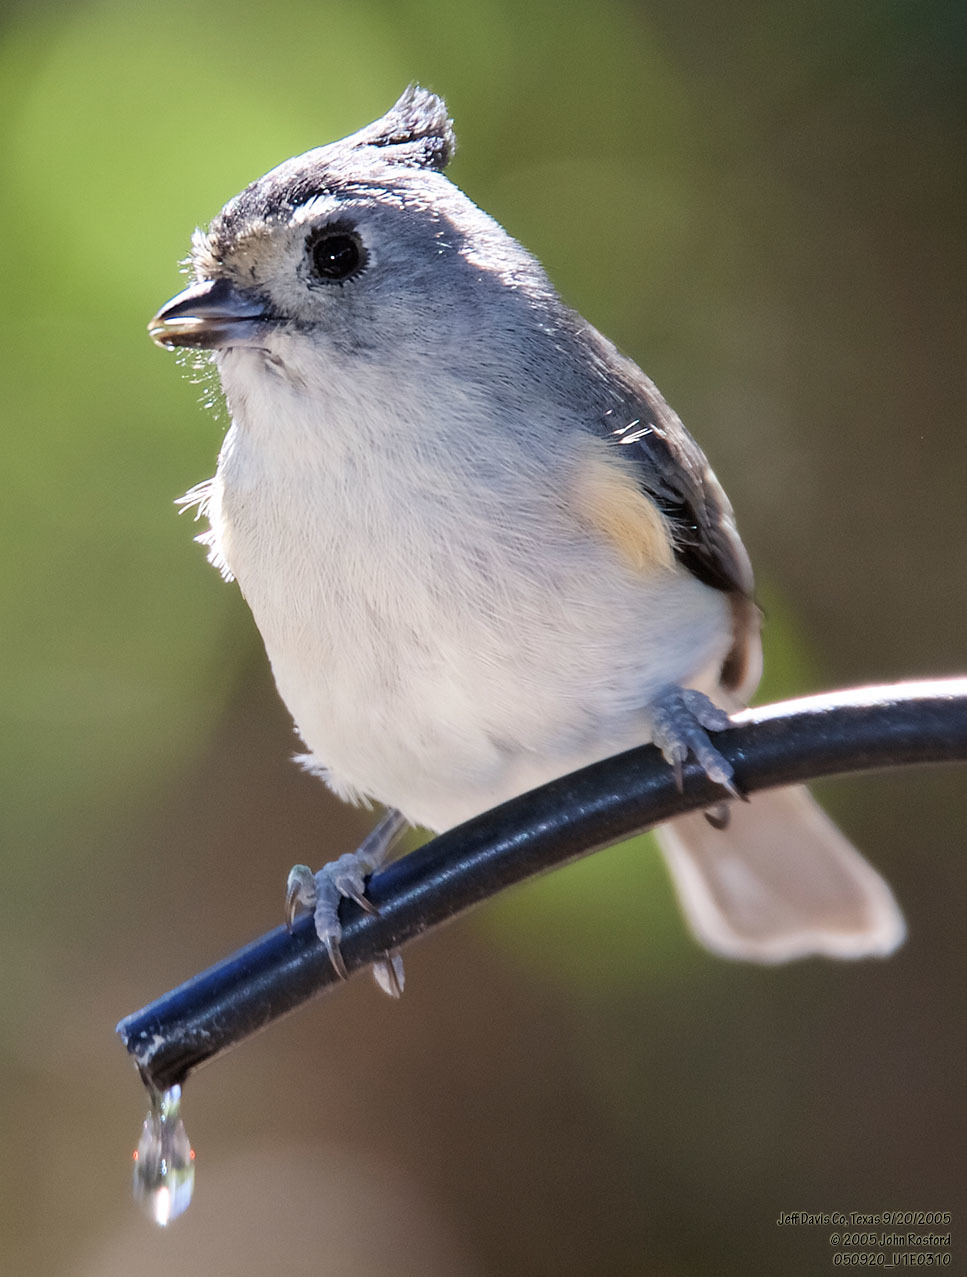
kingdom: Animalia
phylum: Chordata
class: Aves
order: Passeriformes
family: Paridae
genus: Baeolophus
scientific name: Baeolophus atricristatus
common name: Black-crested titmouse
